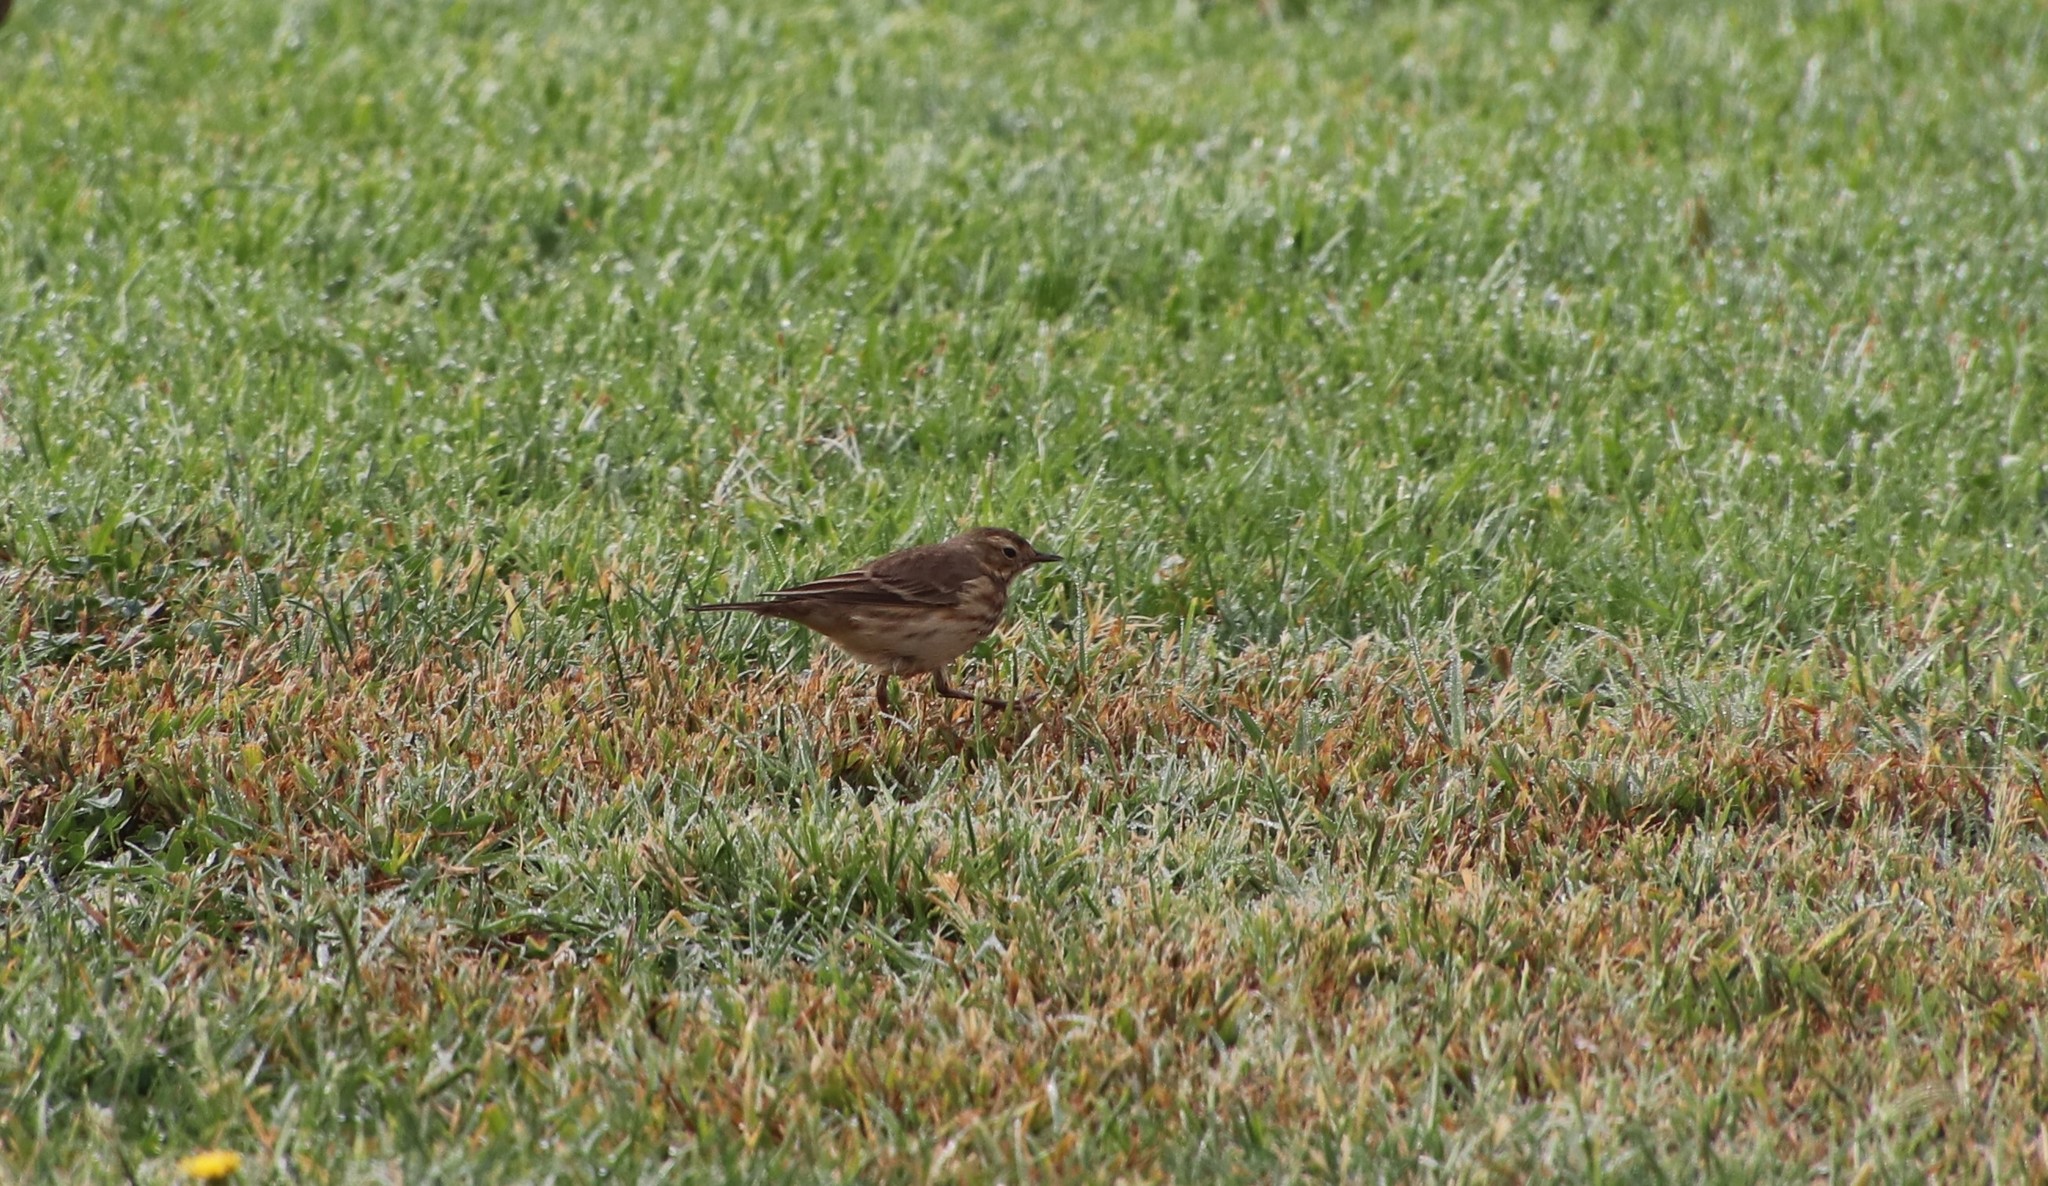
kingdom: Animalia
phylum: Chordata
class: Aves
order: Passeriformes
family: Motacillidae
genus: Anthus
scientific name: Anthus rubescens
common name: Buff-bellied pipit
